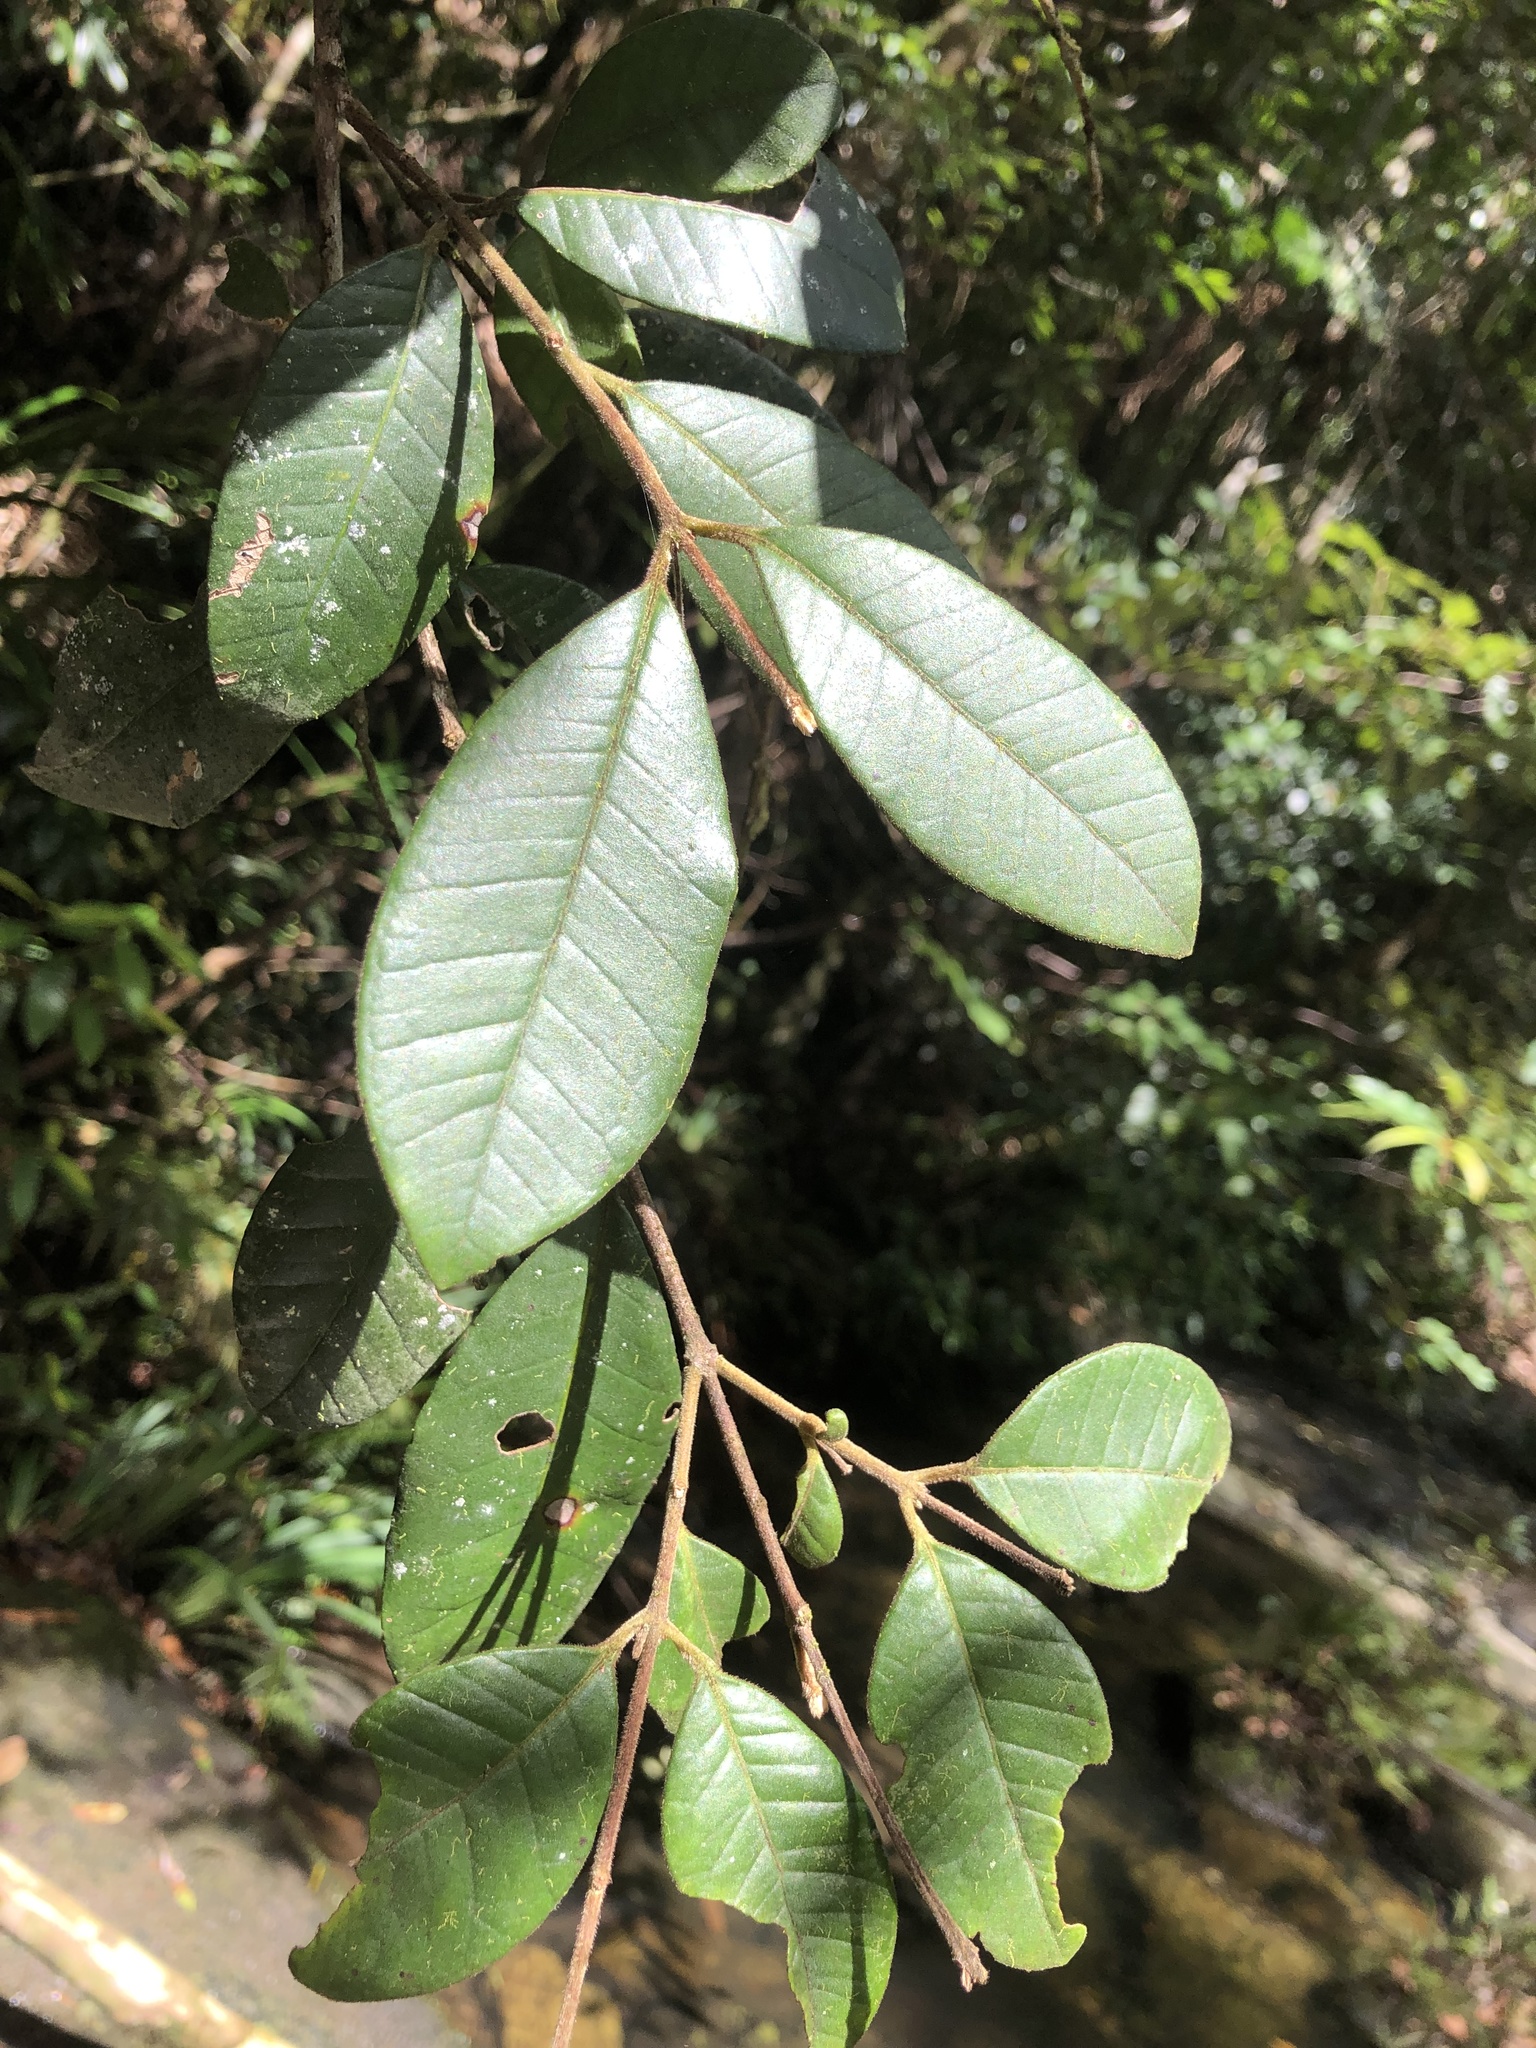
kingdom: Plantae
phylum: Tracheophyta
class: Magnoliopsida
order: Myrtales
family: Myrtaceae
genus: Lenwebbia
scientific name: Lenwebbia prominens
